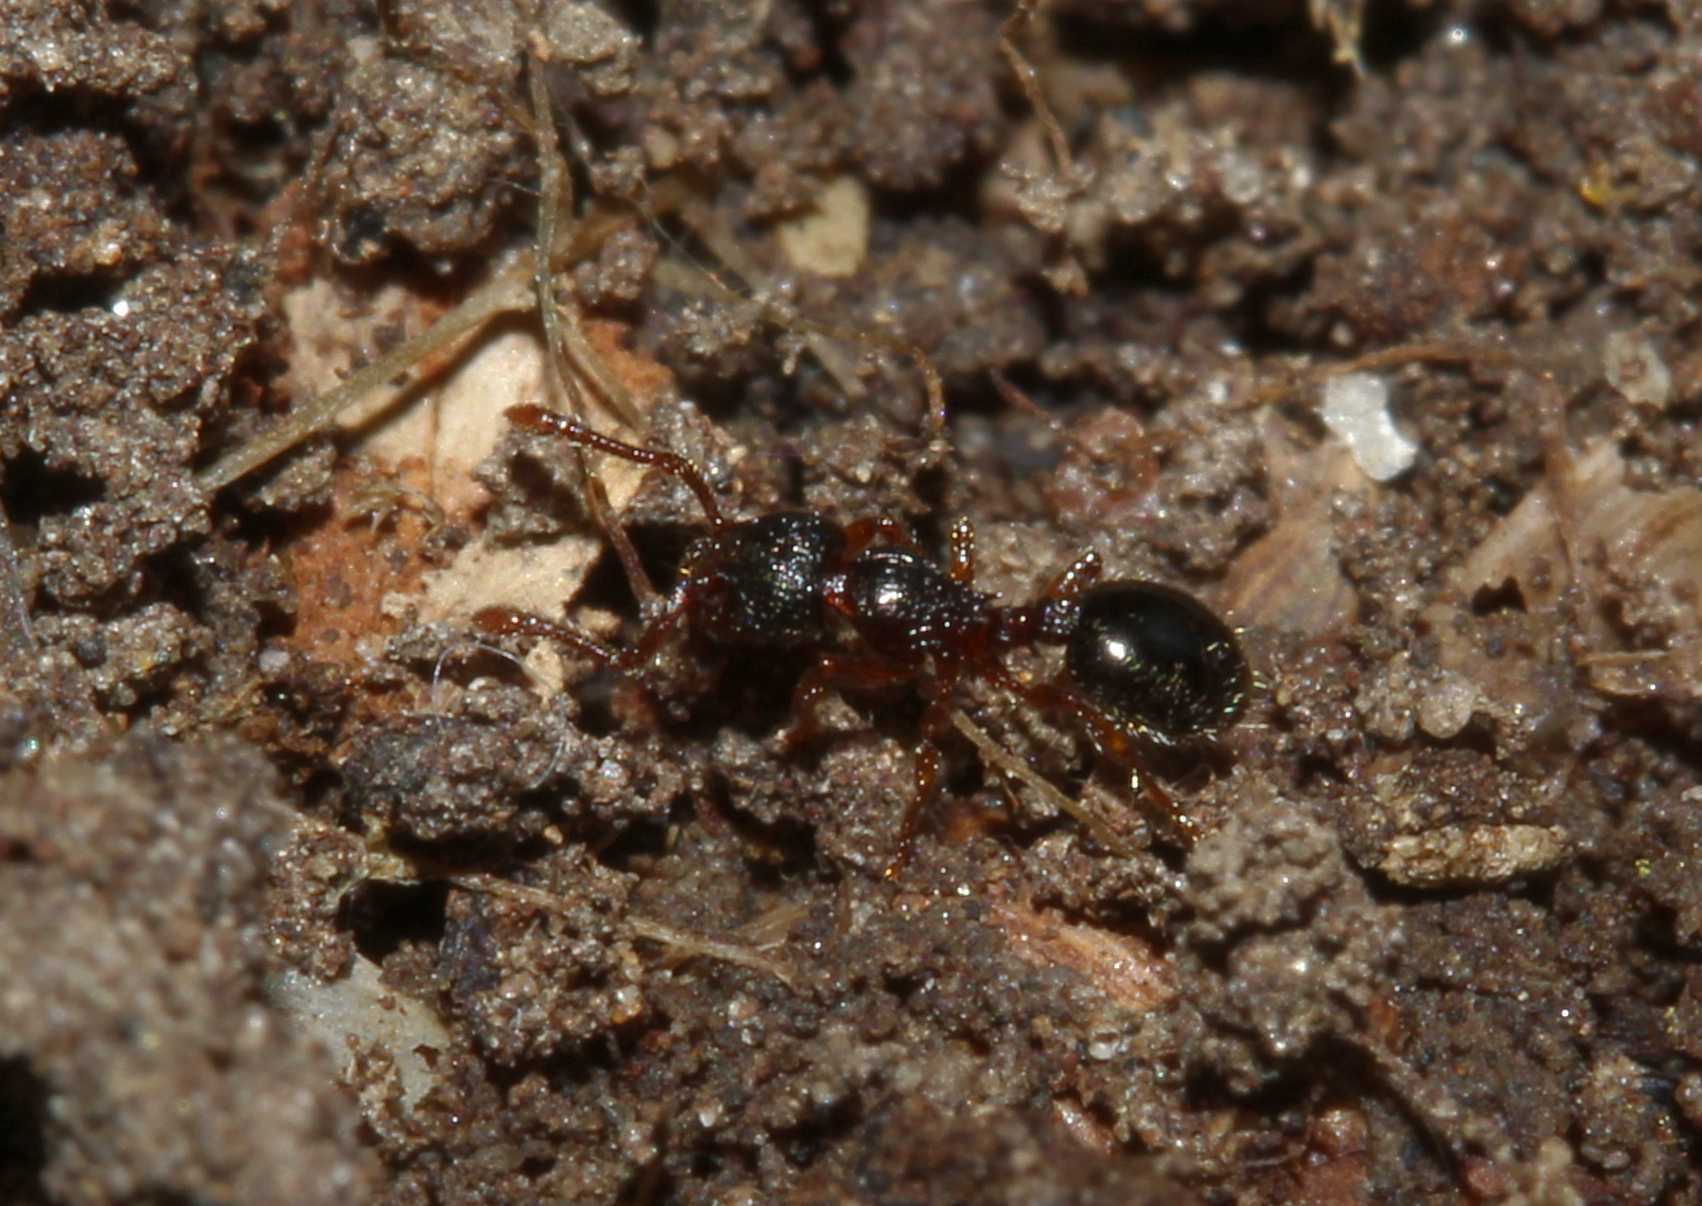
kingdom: Animalia
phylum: Arthropoda
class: Insecta
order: Hymenoptera
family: Formicidae
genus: Myrmecina
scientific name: Myrmecina graminicola
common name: Grass ant
